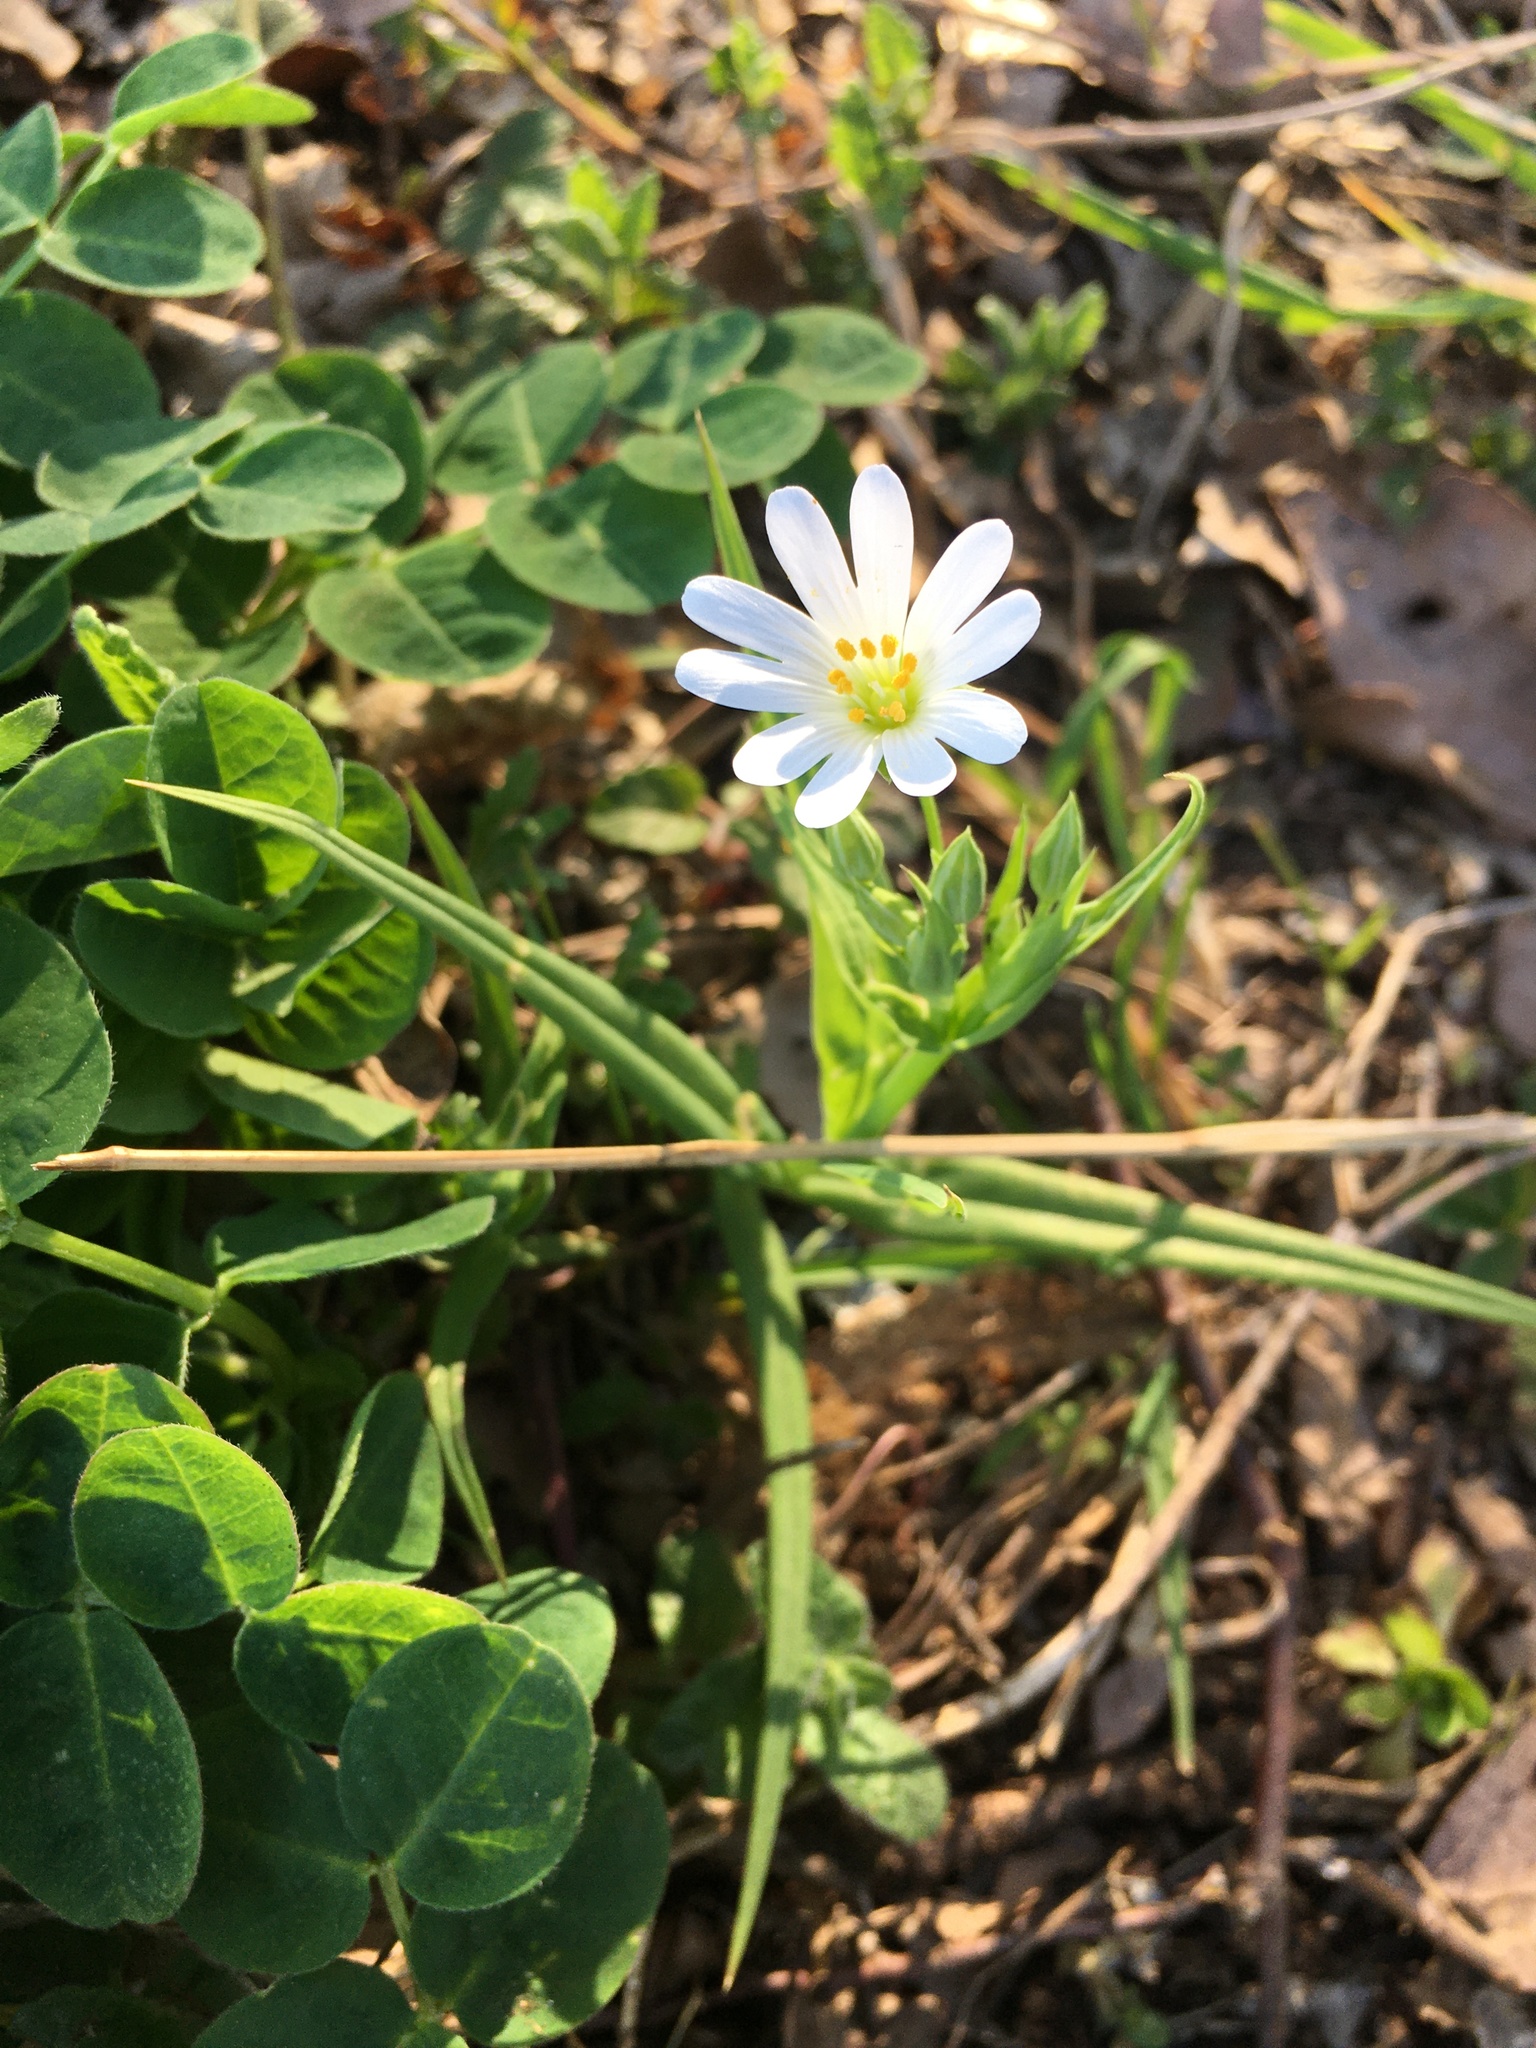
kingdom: Plantae
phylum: Tracheophyta
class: Magnoliopsida
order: Caryophyllales
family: Caryophyllaceae
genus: Rabelera
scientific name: Rabelera holostea
